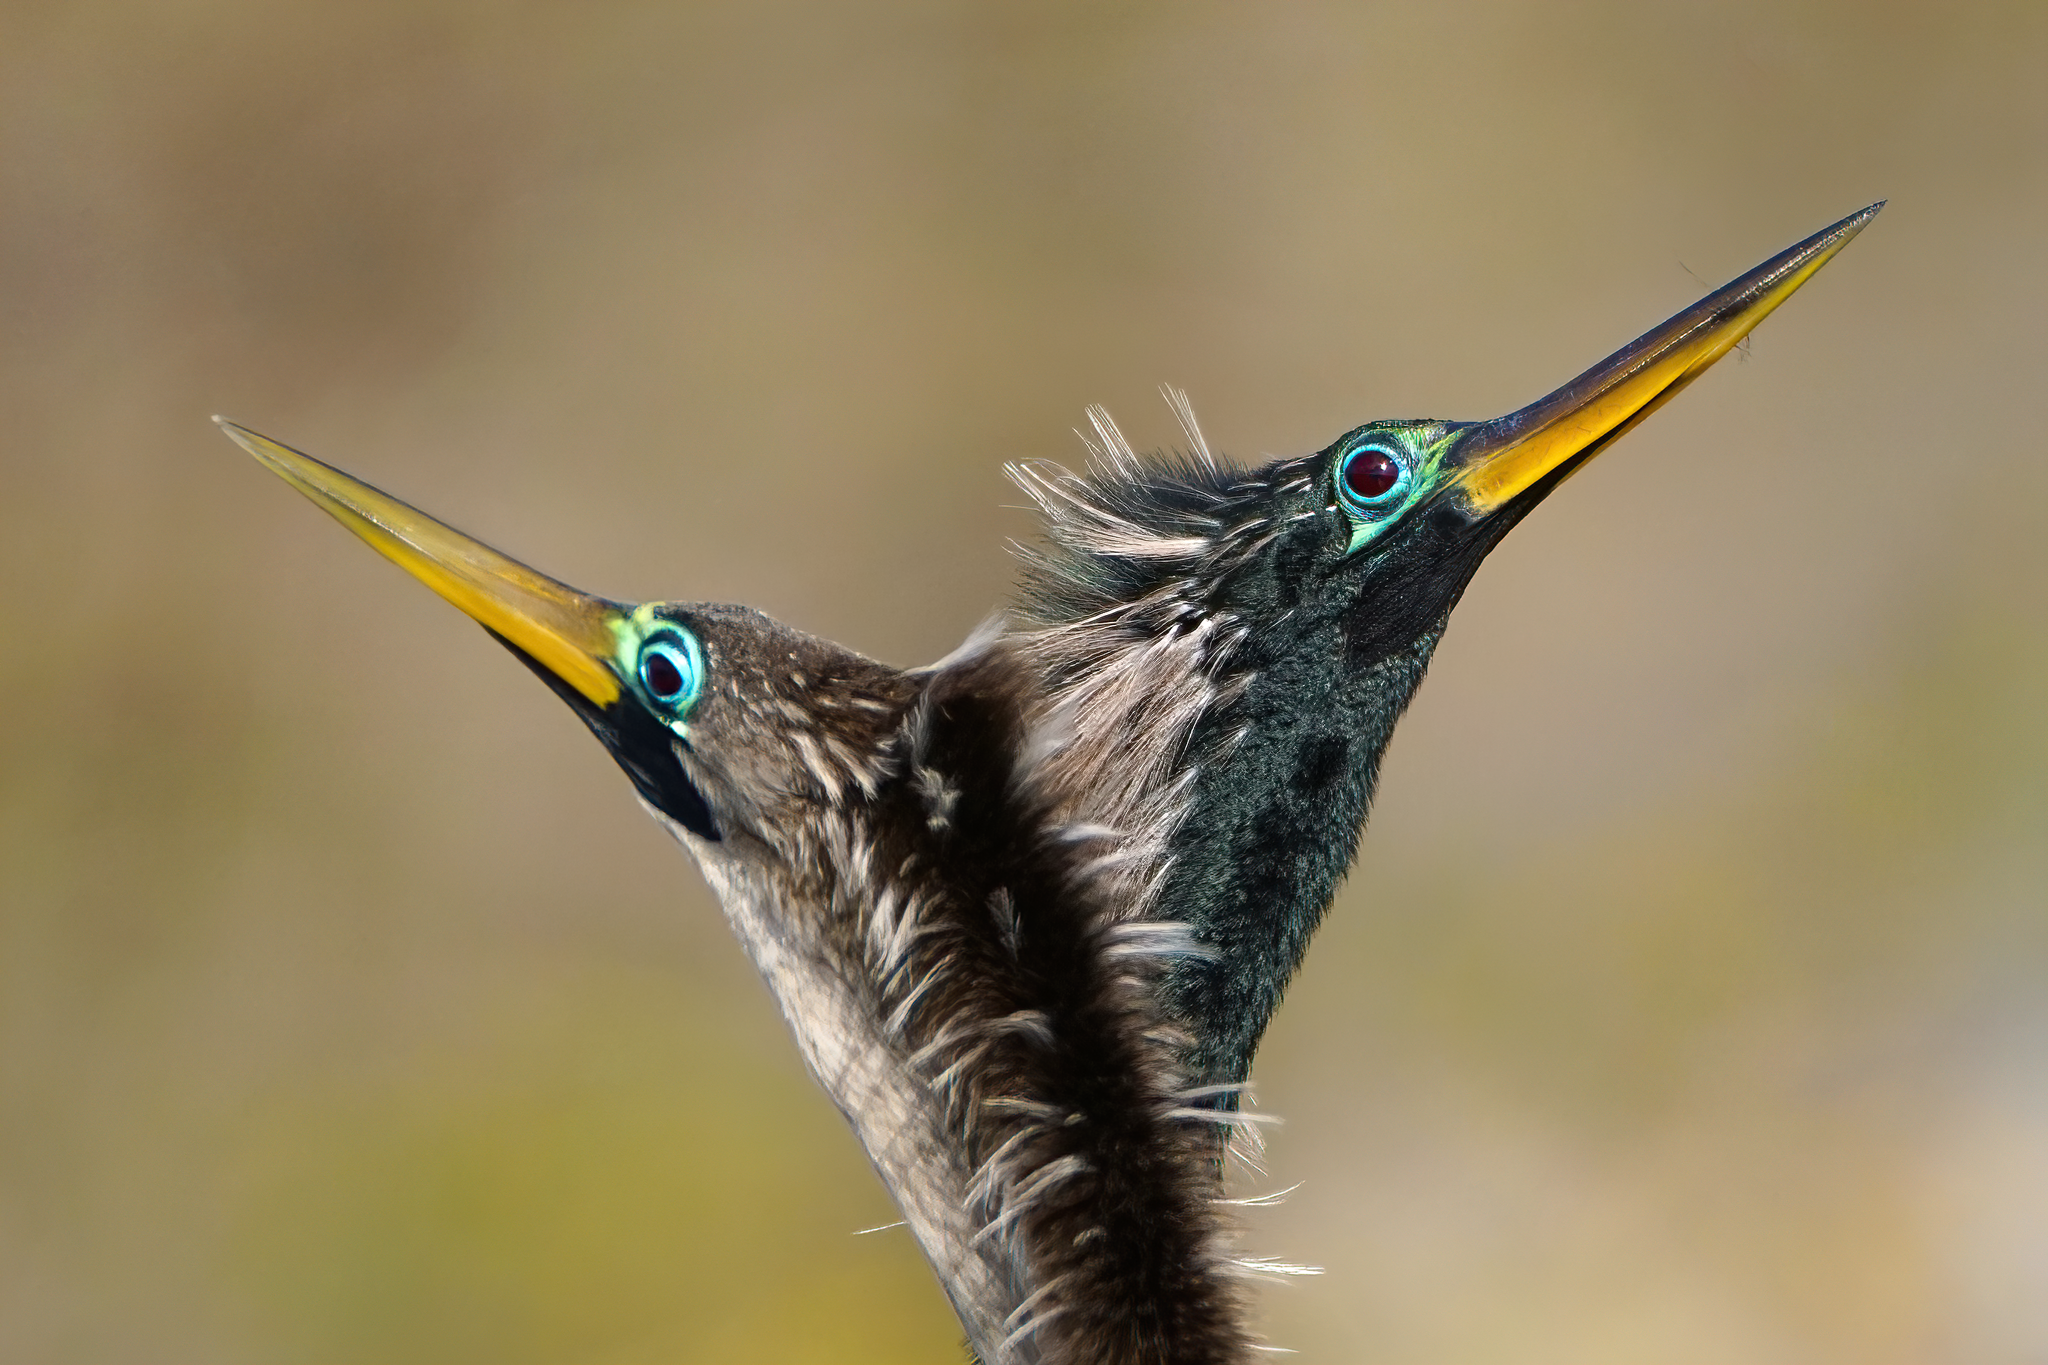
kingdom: Animalia
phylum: Chordata
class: Aves
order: Suliformes
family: Anhingidae
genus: Anhinga
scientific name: Anhinga anhinga
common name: Anhinga
